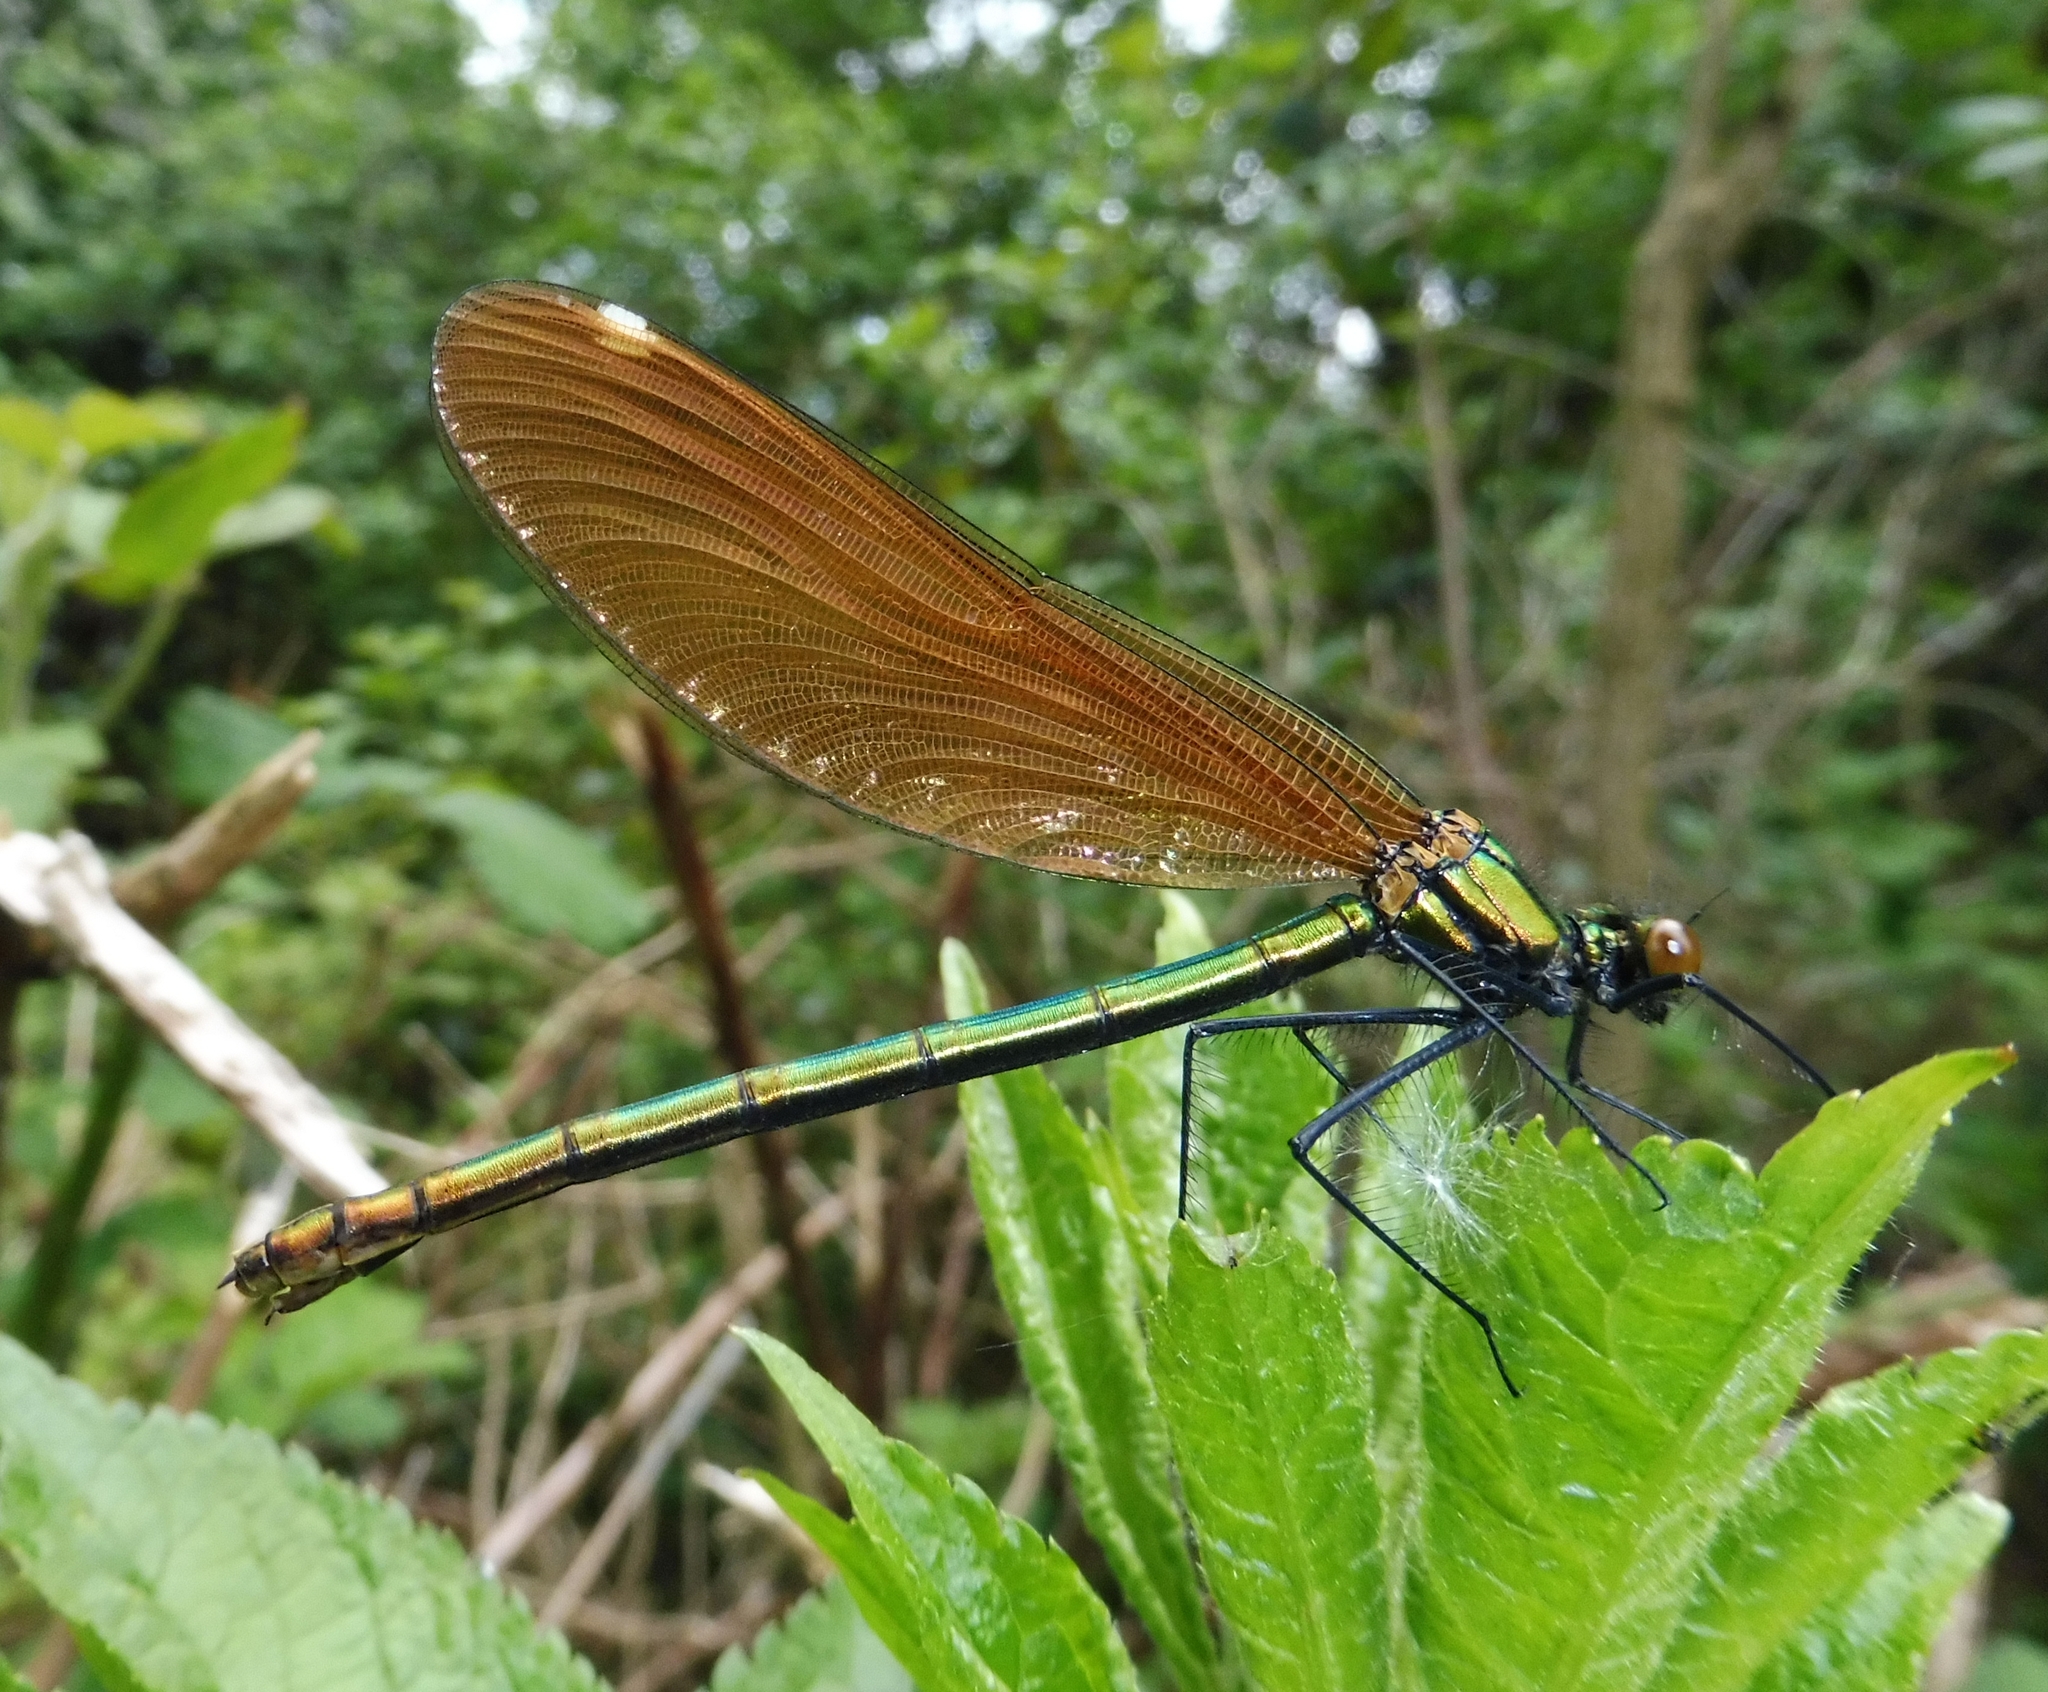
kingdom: Animalia
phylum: Arthropoda
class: Insecta
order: Odonata
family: Calopterygidae
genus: Calopteryx
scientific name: Calopteryx virgo
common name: Beautiful demoiselle
